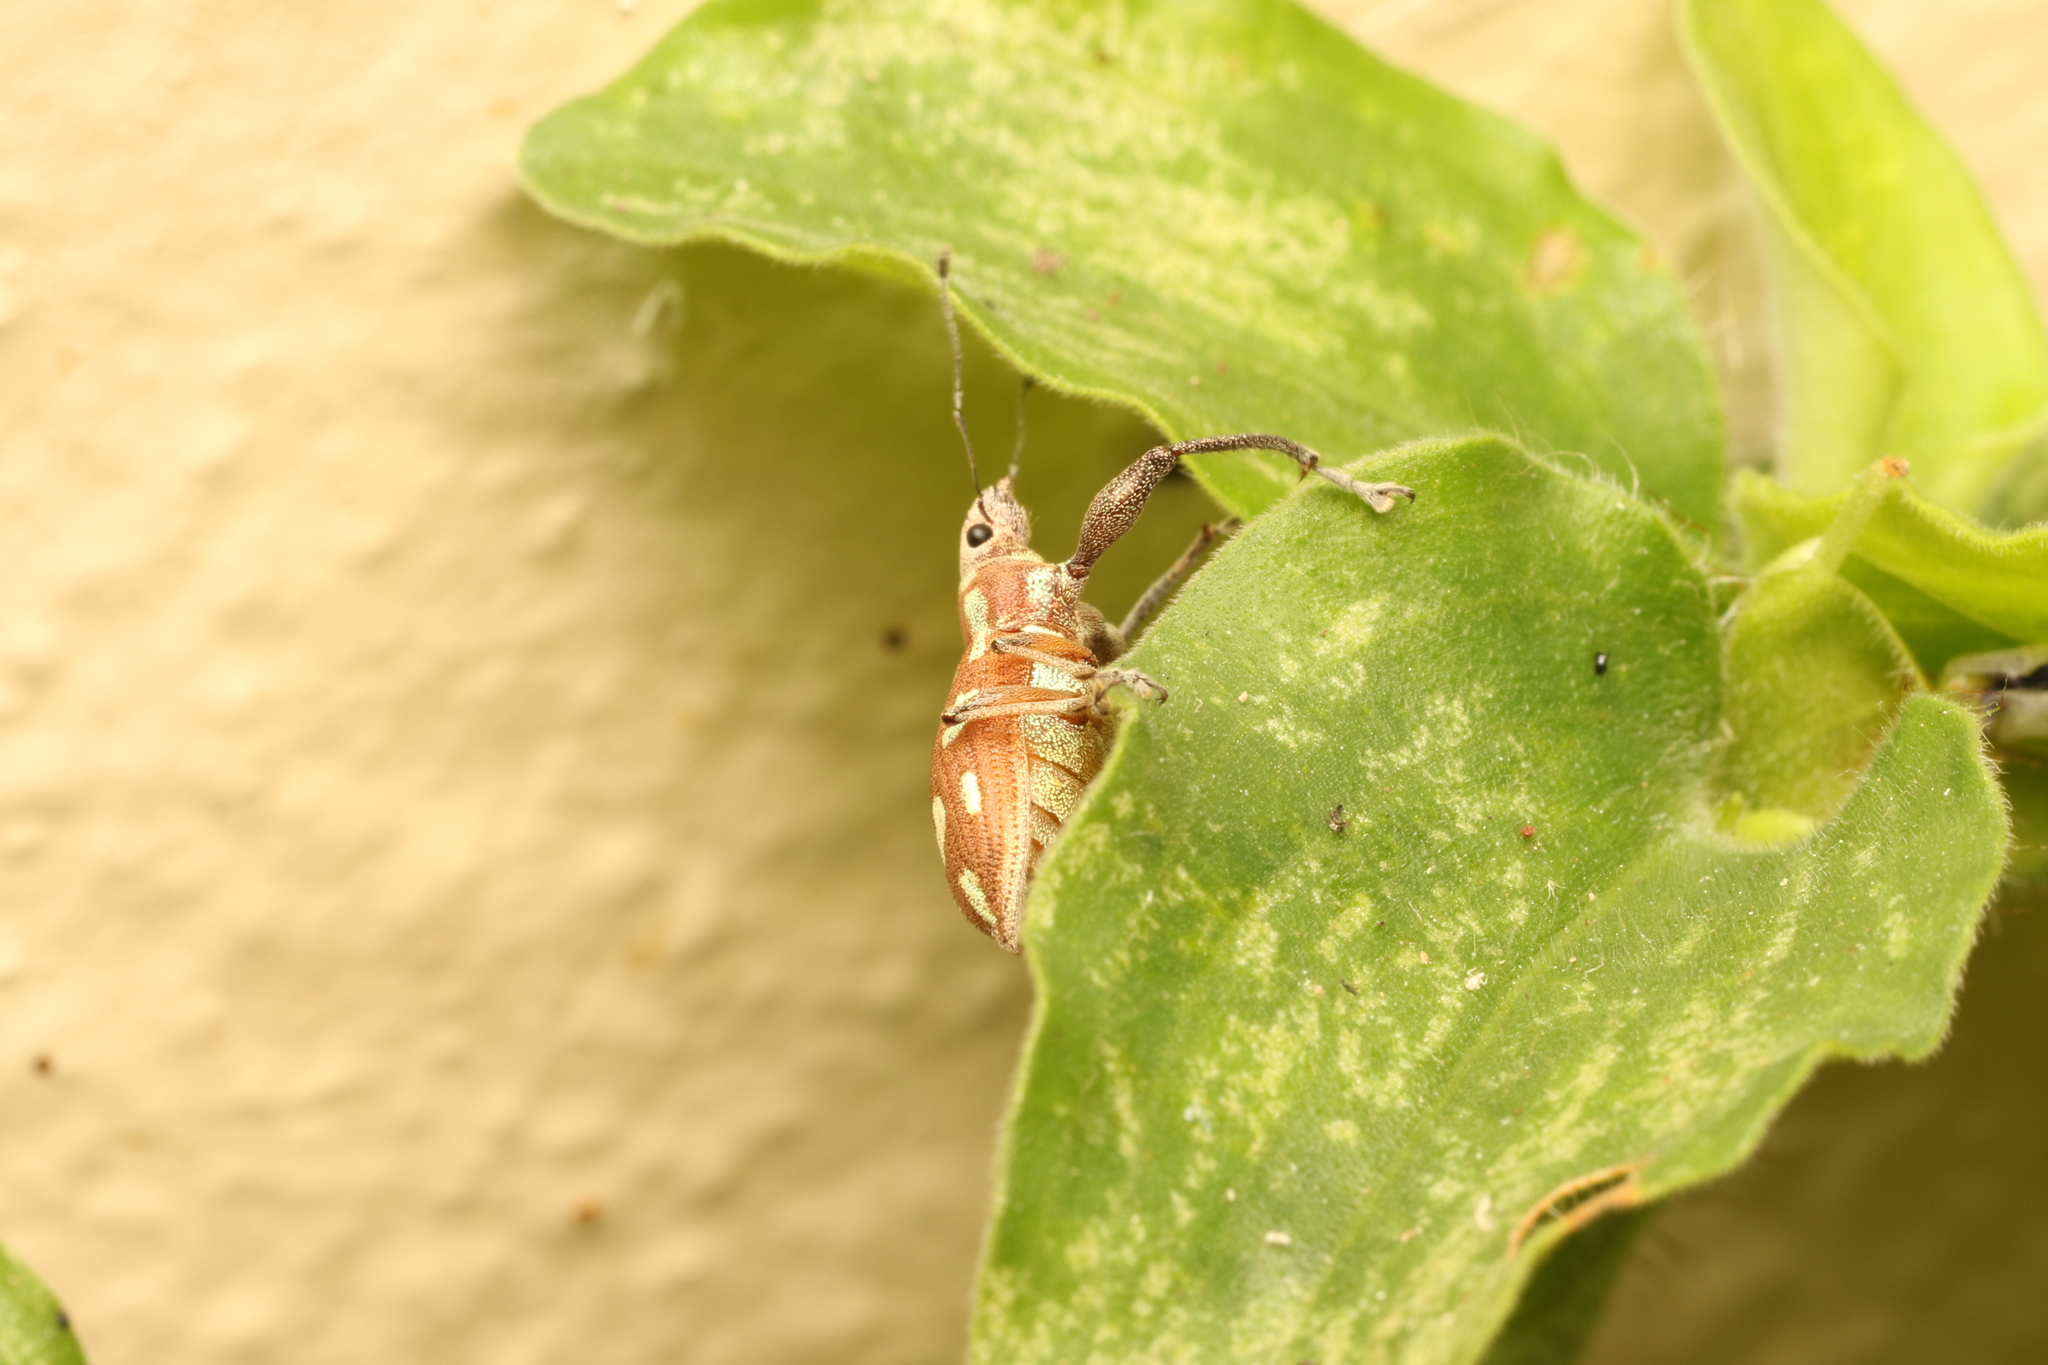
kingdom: Animalia
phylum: Arthropoda
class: Insecta
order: Coleoptera
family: Curculionidae
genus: Naupactus
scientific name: Naupactus bellus
